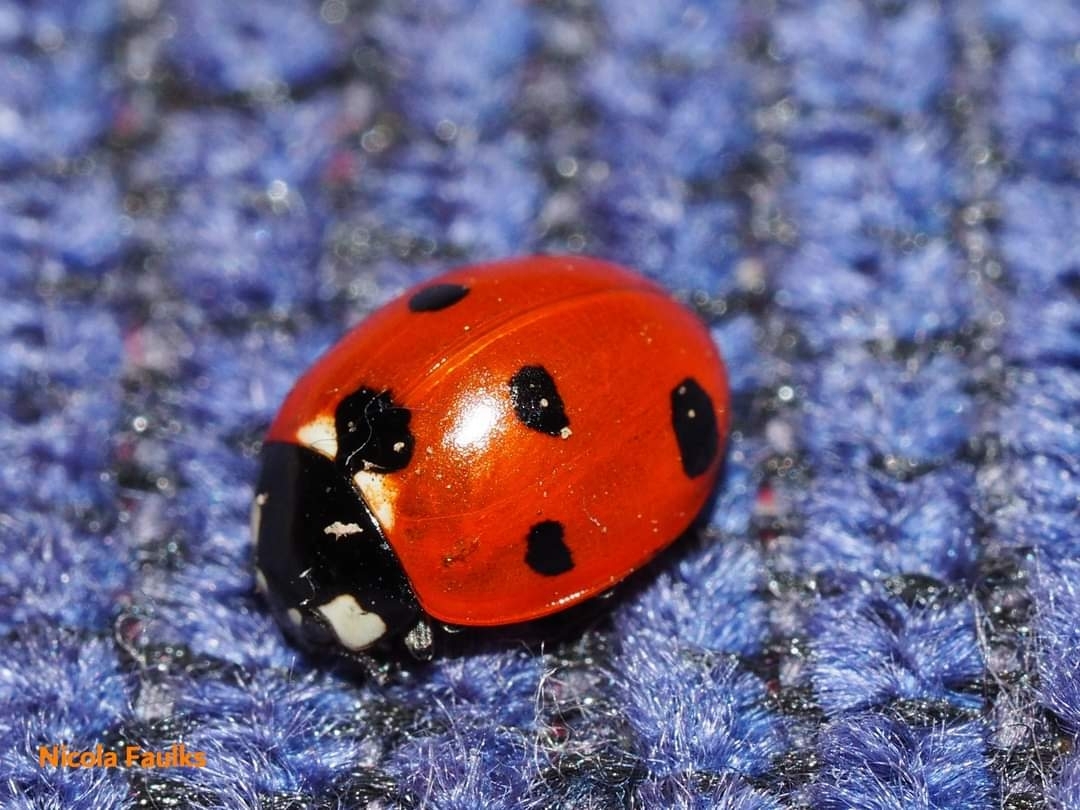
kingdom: Animalia
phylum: Arthropoda
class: Insecta
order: Coleoptera
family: Coccinellidae
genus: Coccinella
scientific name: Coccinella septempunctata
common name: Sevenspotted lady beetle
